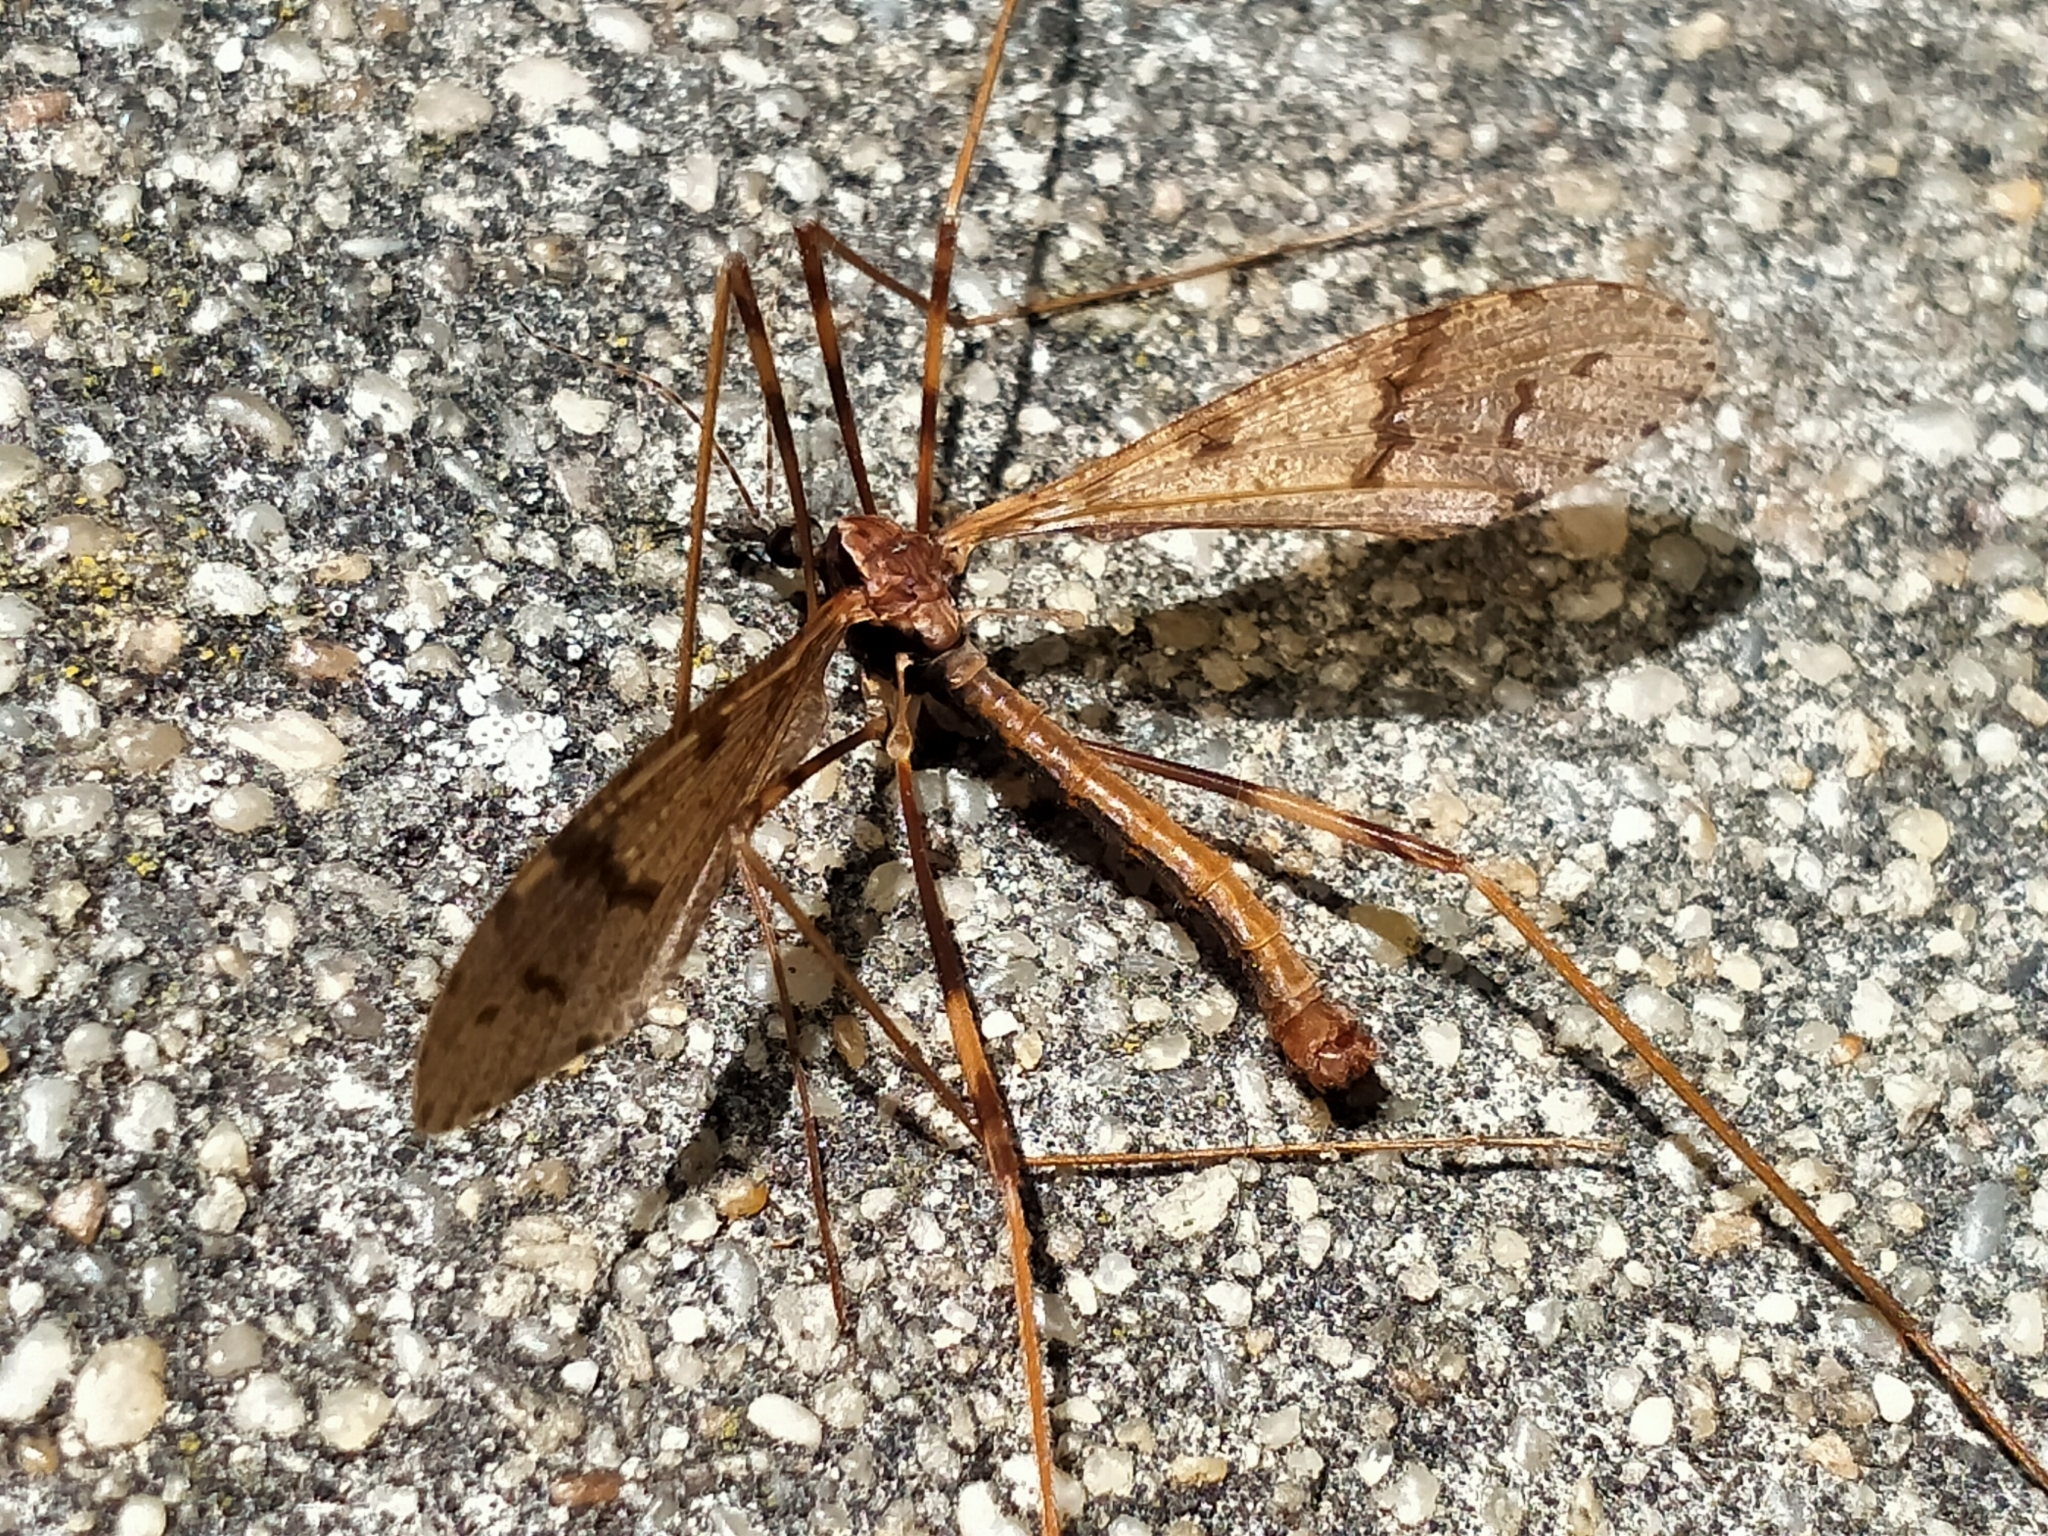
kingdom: Animalia
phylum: Arthropoda
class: Insecta
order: Diptera
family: Limoniidae
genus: Rhamphophila
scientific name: Rhamphophila sinistra
